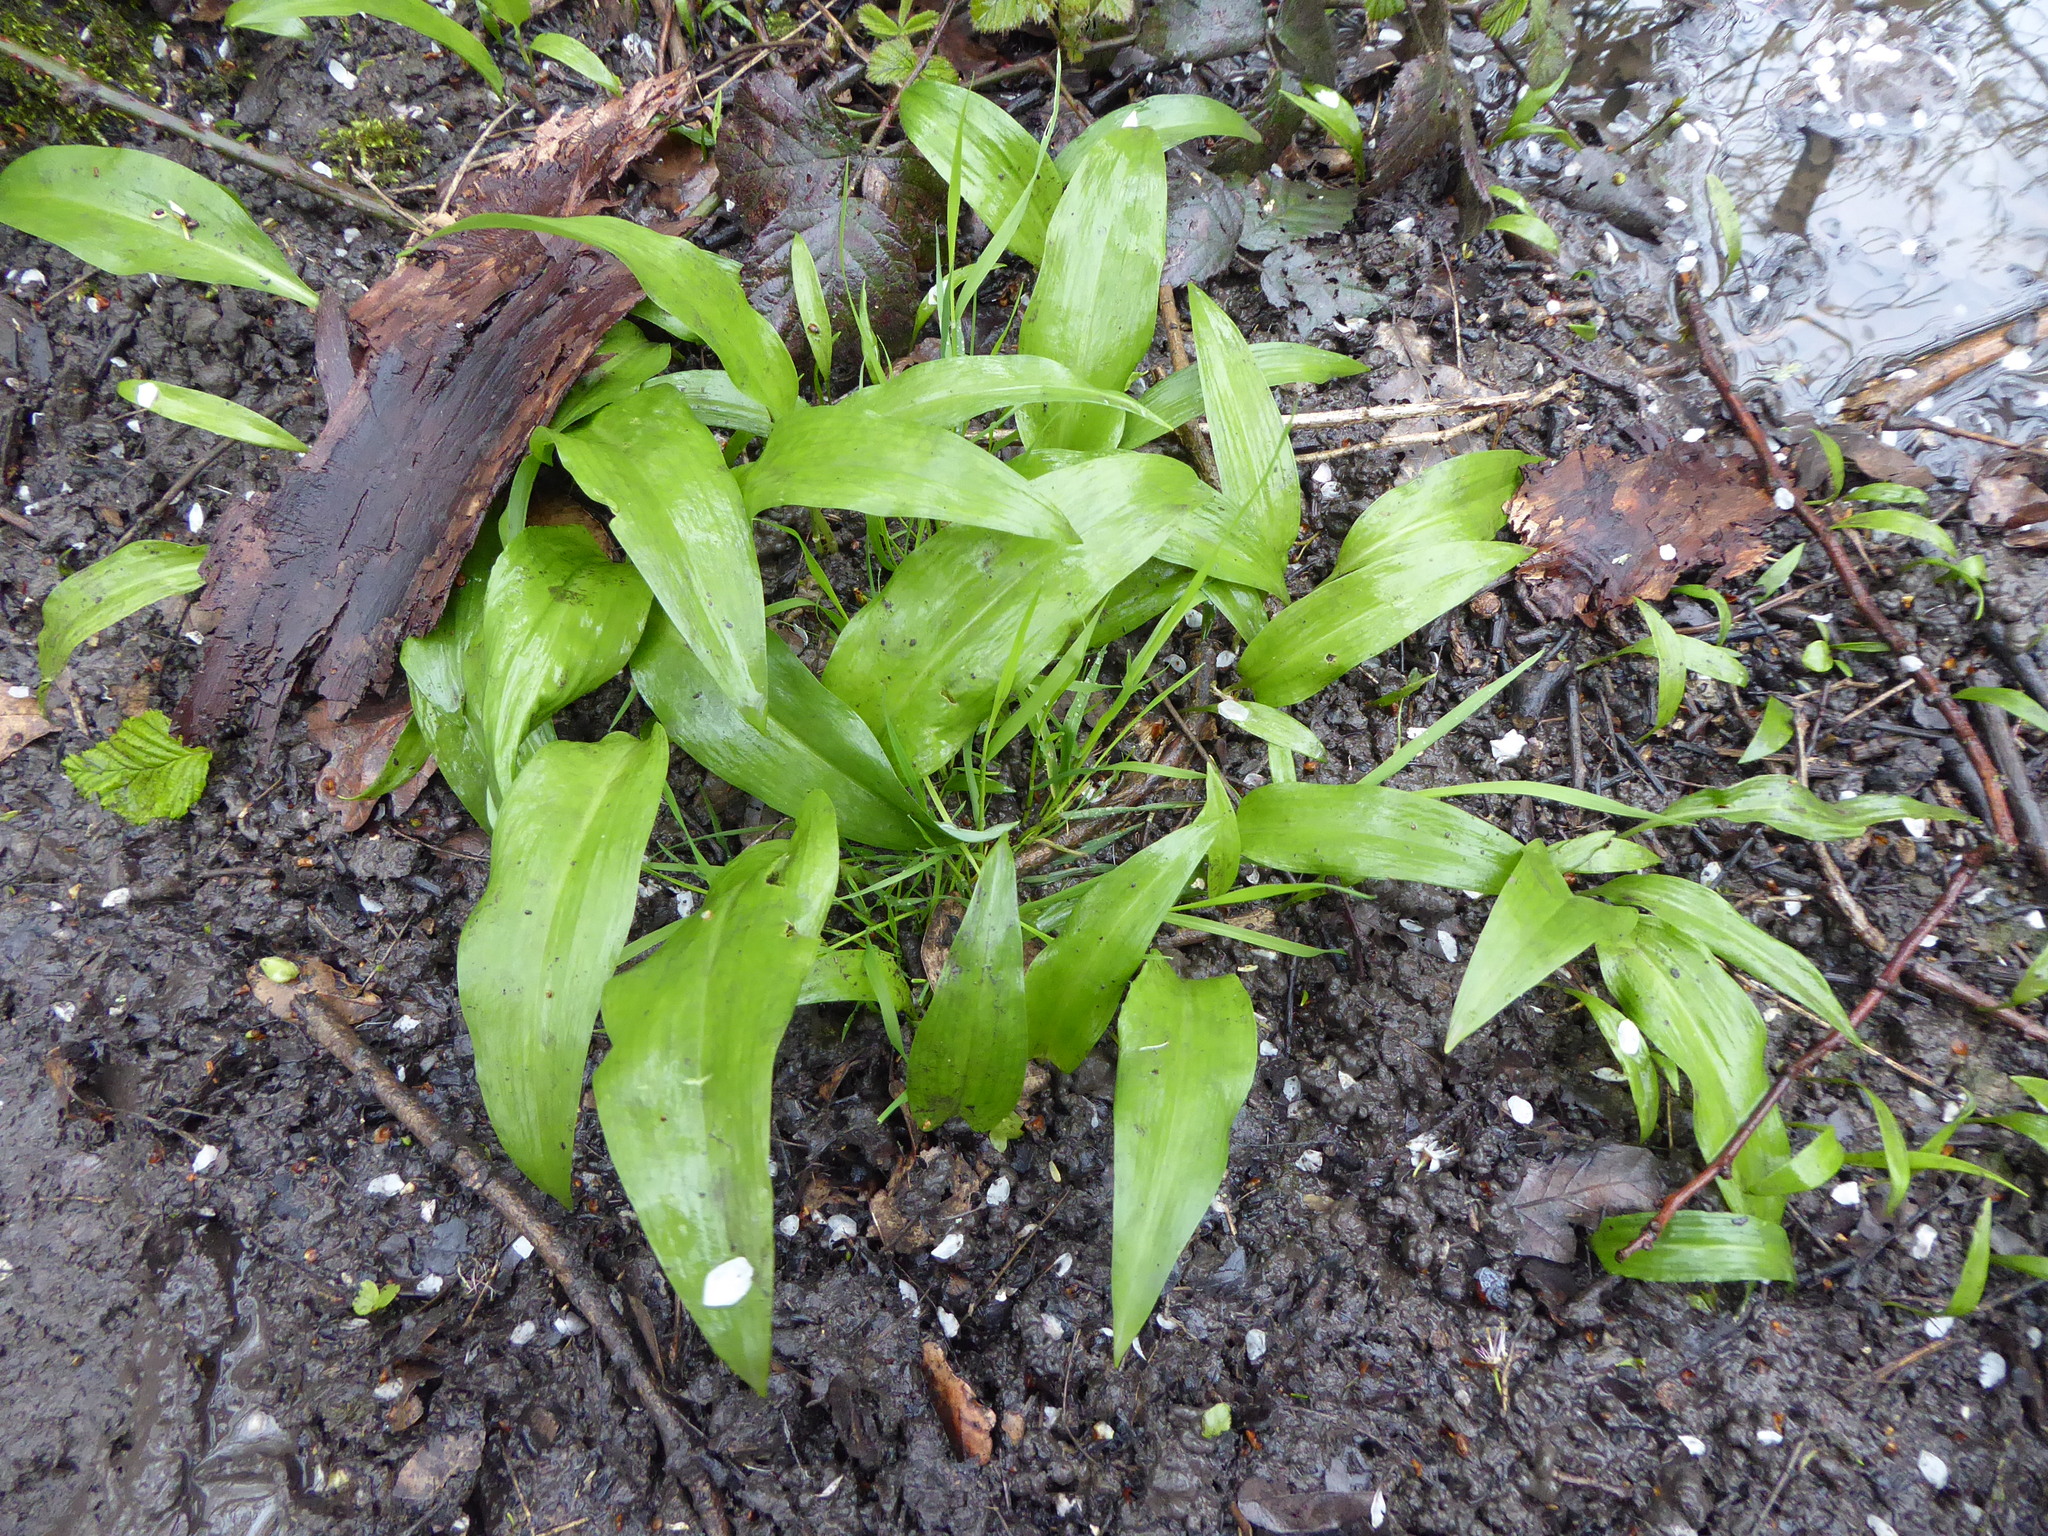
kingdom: Plantae
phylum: Tracheophyta
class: Liliopsida
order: Asparagales
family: Amaryllidaceae
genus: Allium
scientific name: Allium ursinum
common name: Ramsons
